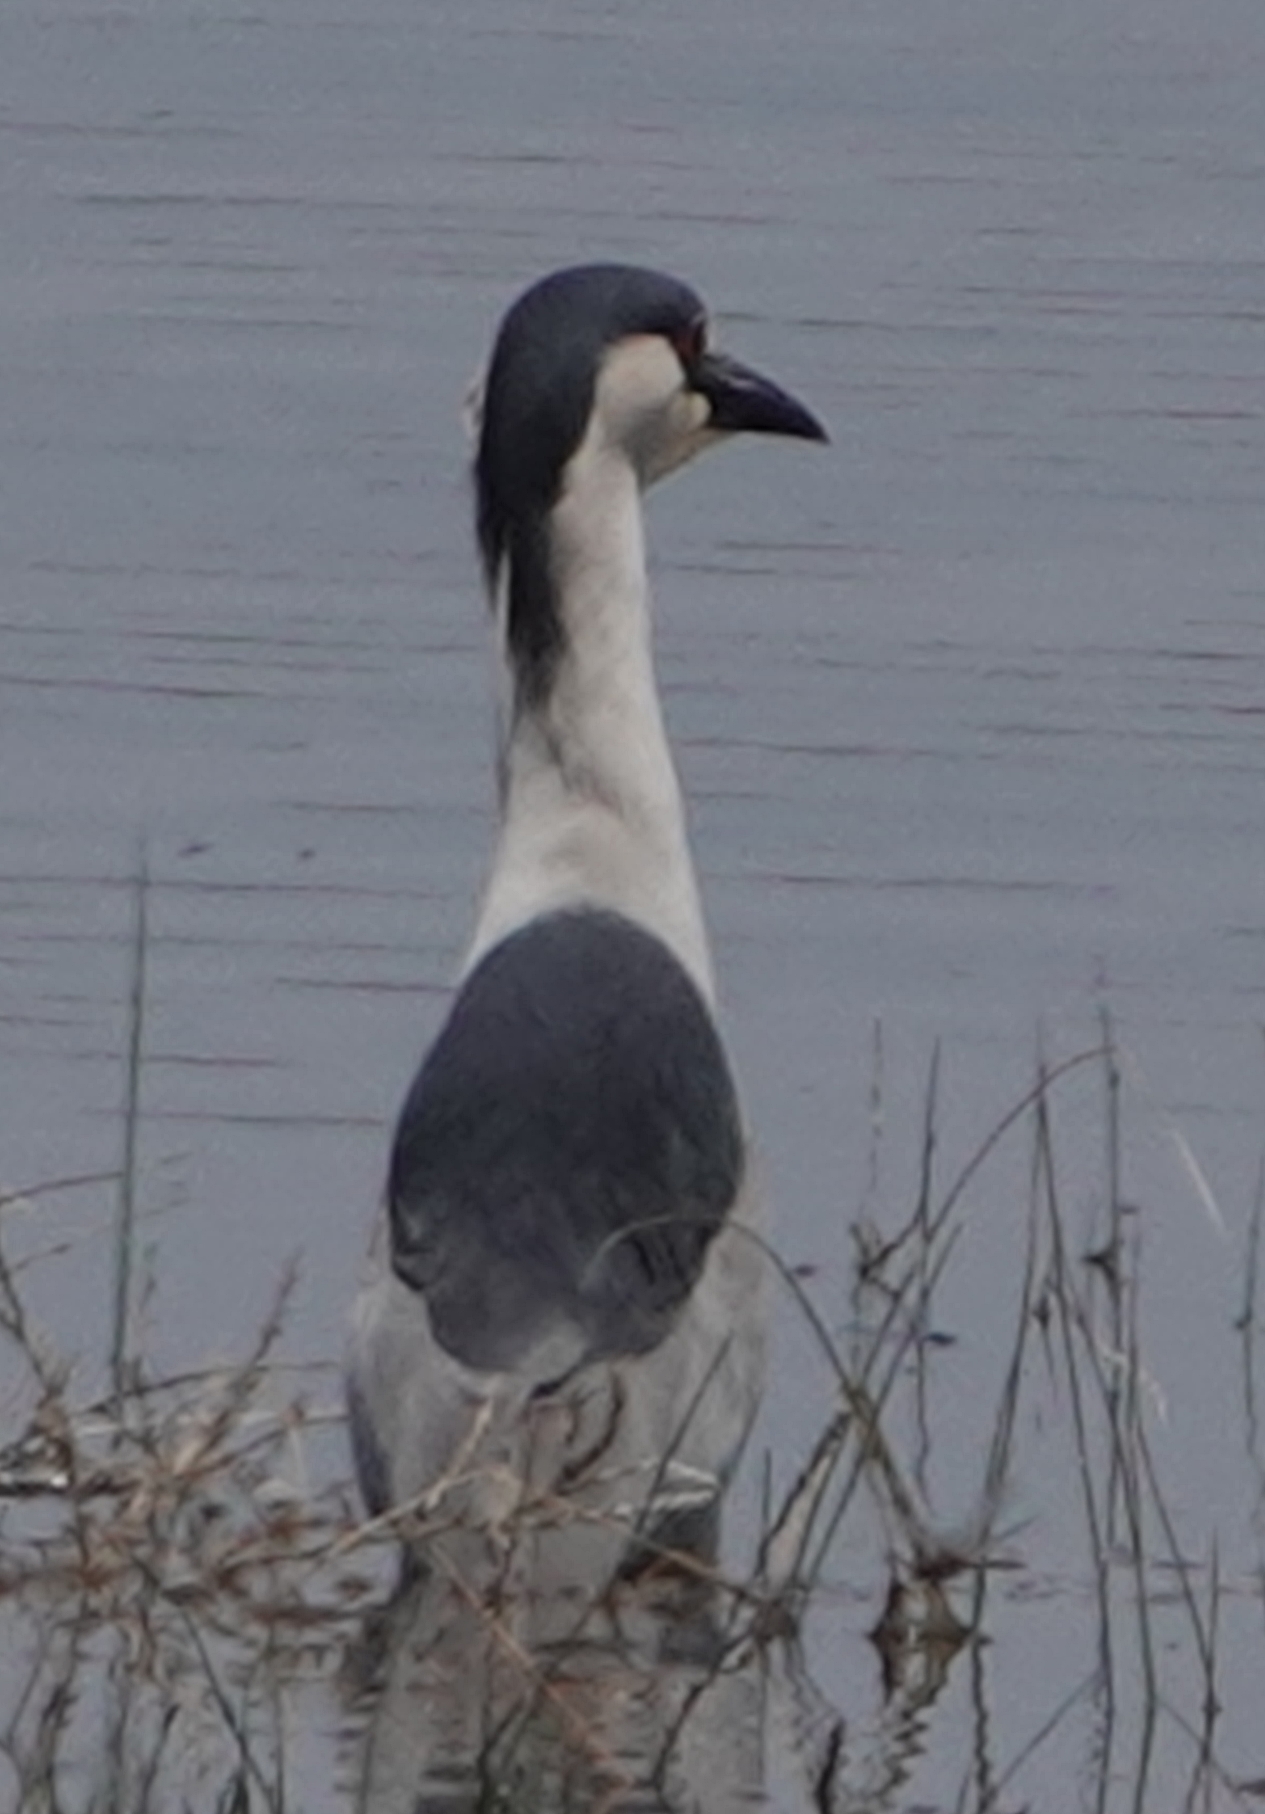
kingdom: Animalia
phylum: Chordata
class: Aves
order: Pelecaniformes
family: Ardeidae
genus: Nycticorax
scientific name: Nycticorax nycticorax
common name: Black-crowned night heron
